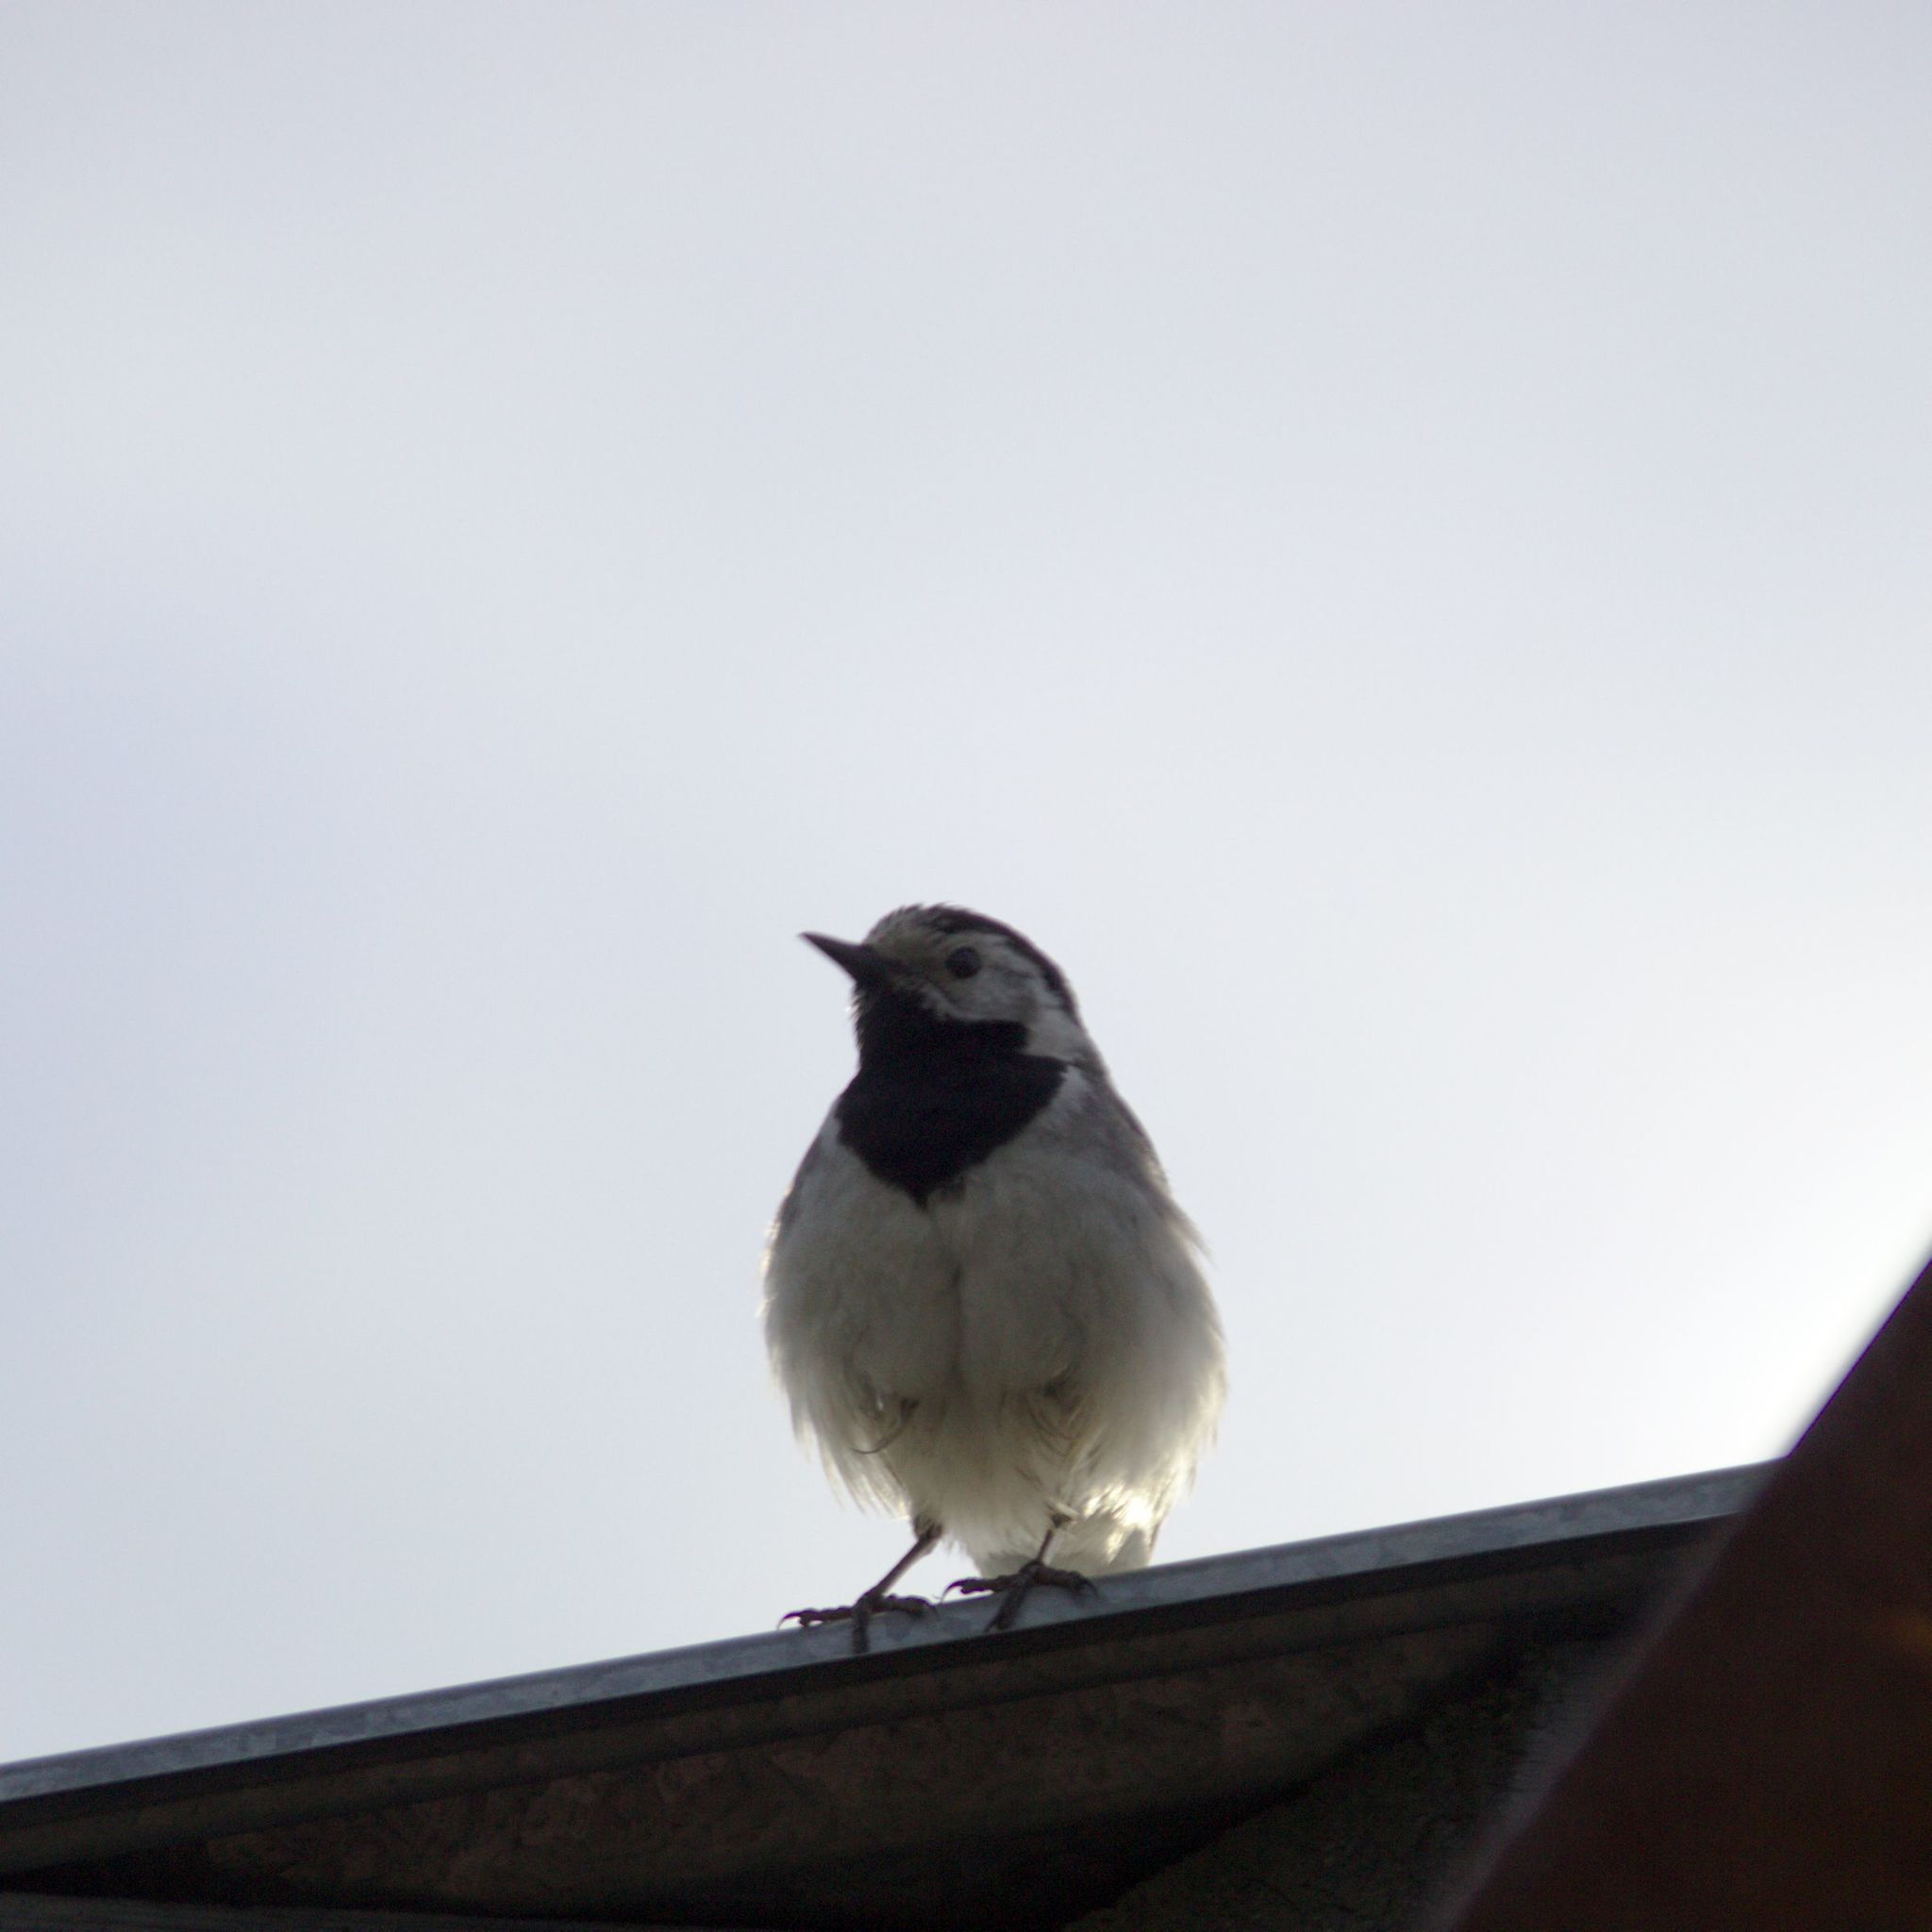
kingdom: Animalia
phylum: Chordata
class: Aves
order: Passeriformes
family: Motacillidae
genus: Motacilla
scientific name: Motacilla alba
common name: White wagtail
